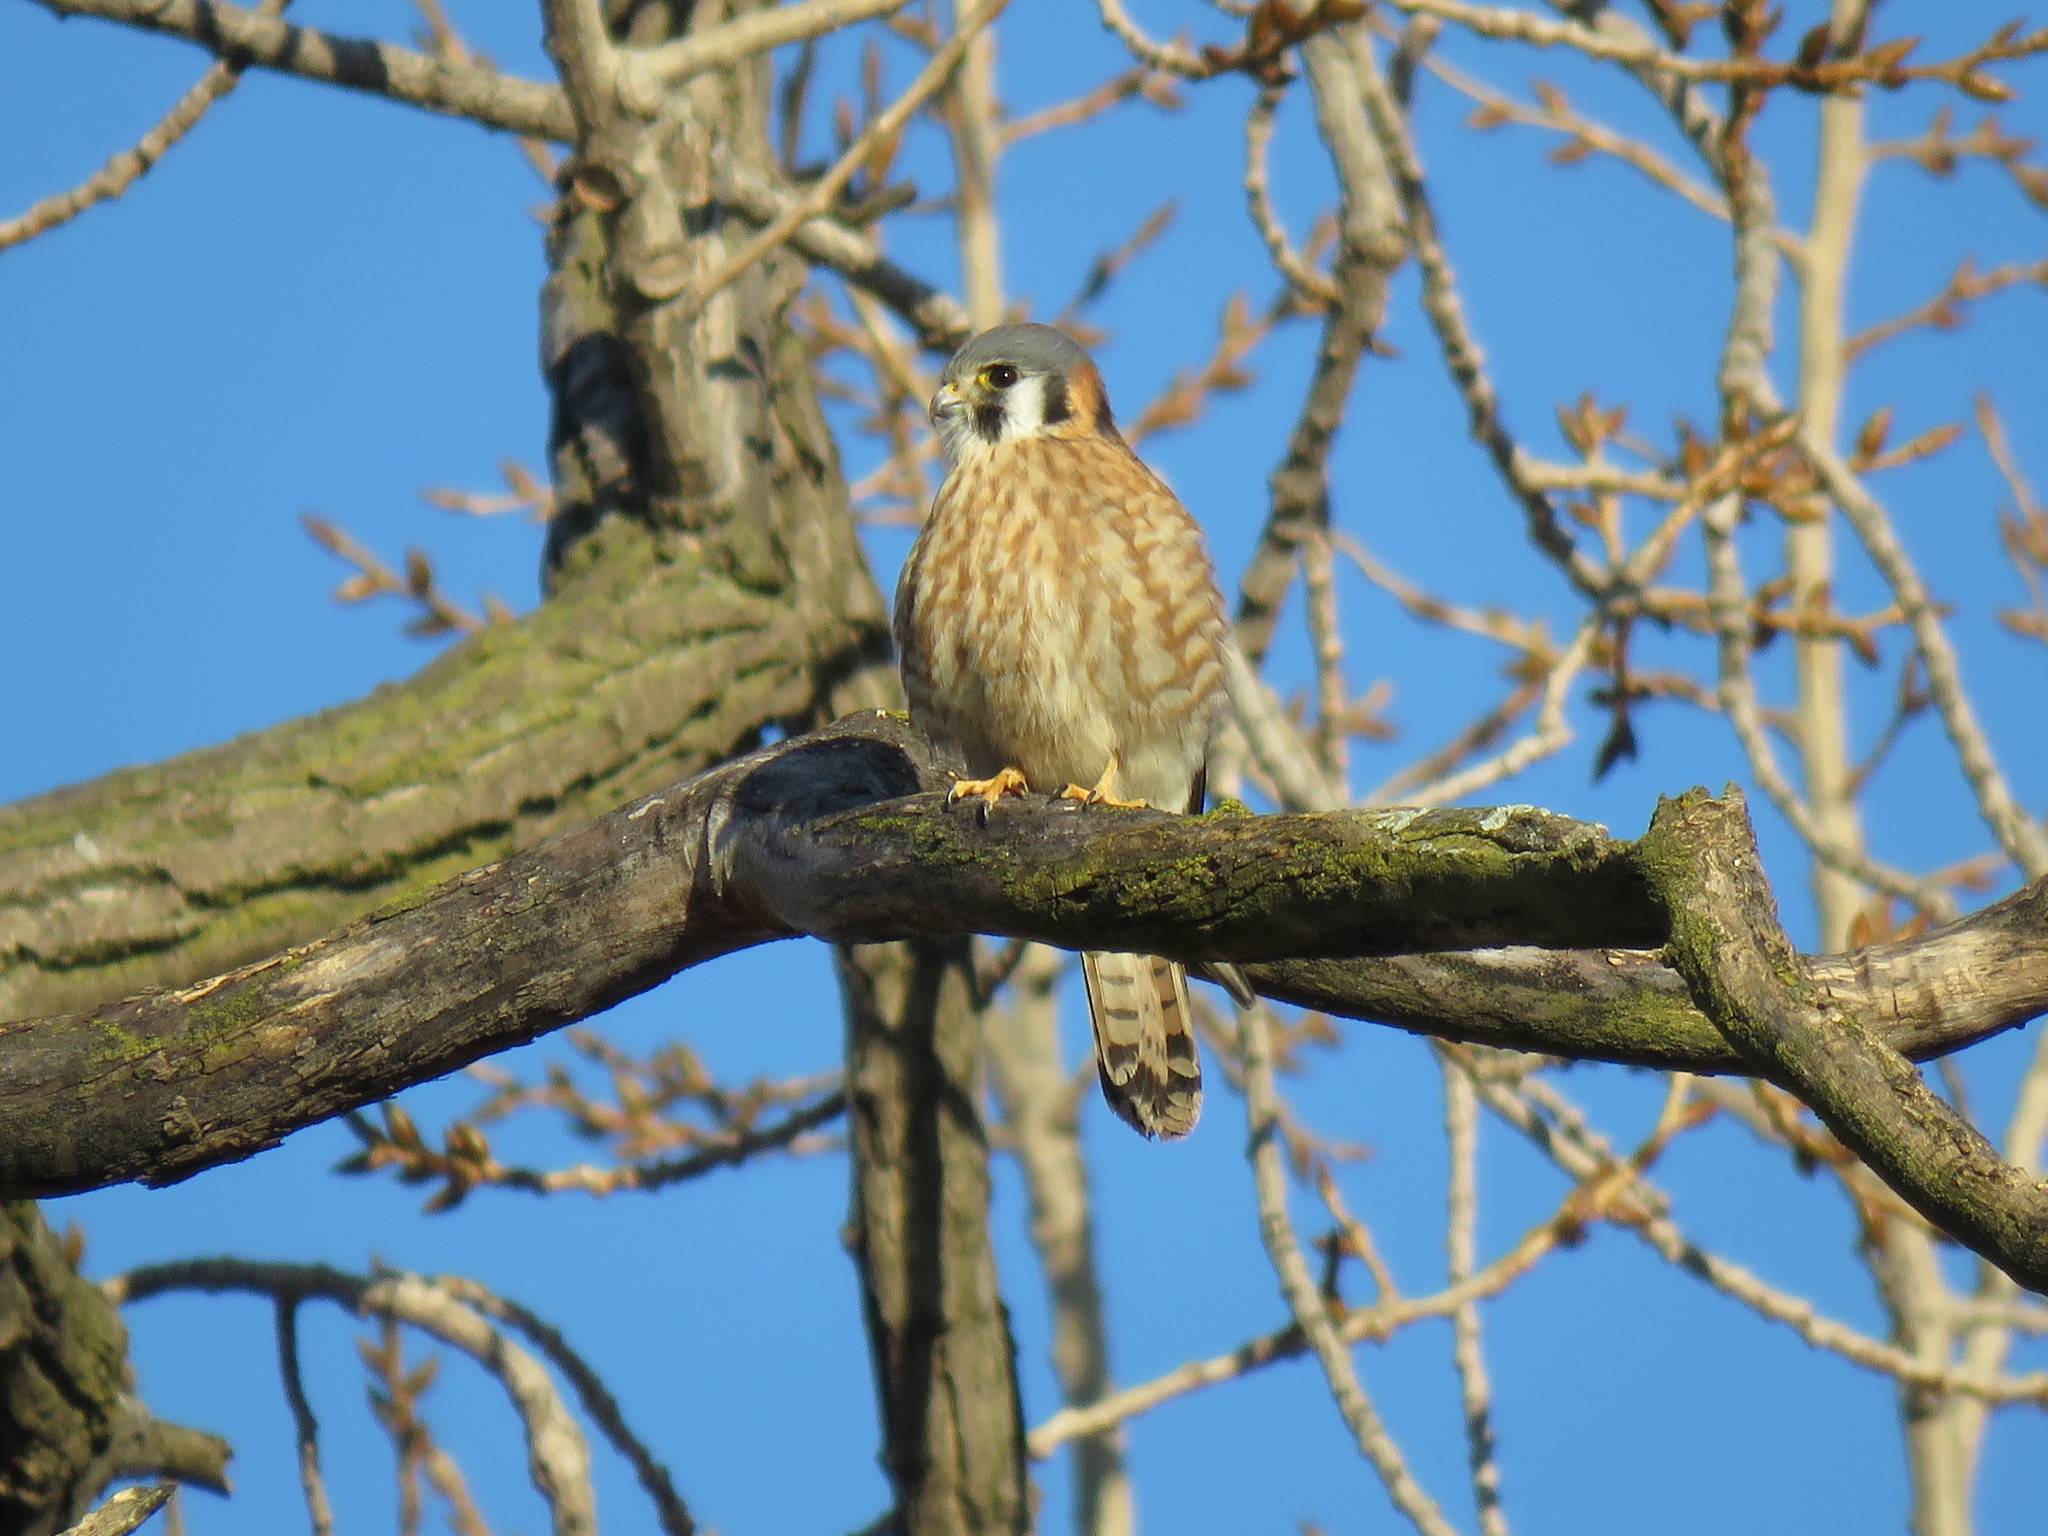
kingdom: Animalia
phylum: Chordata
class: Aves
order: Falconiformes
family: Falconidae
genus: Falco
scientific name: Falco sparverius
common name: American kestrel
